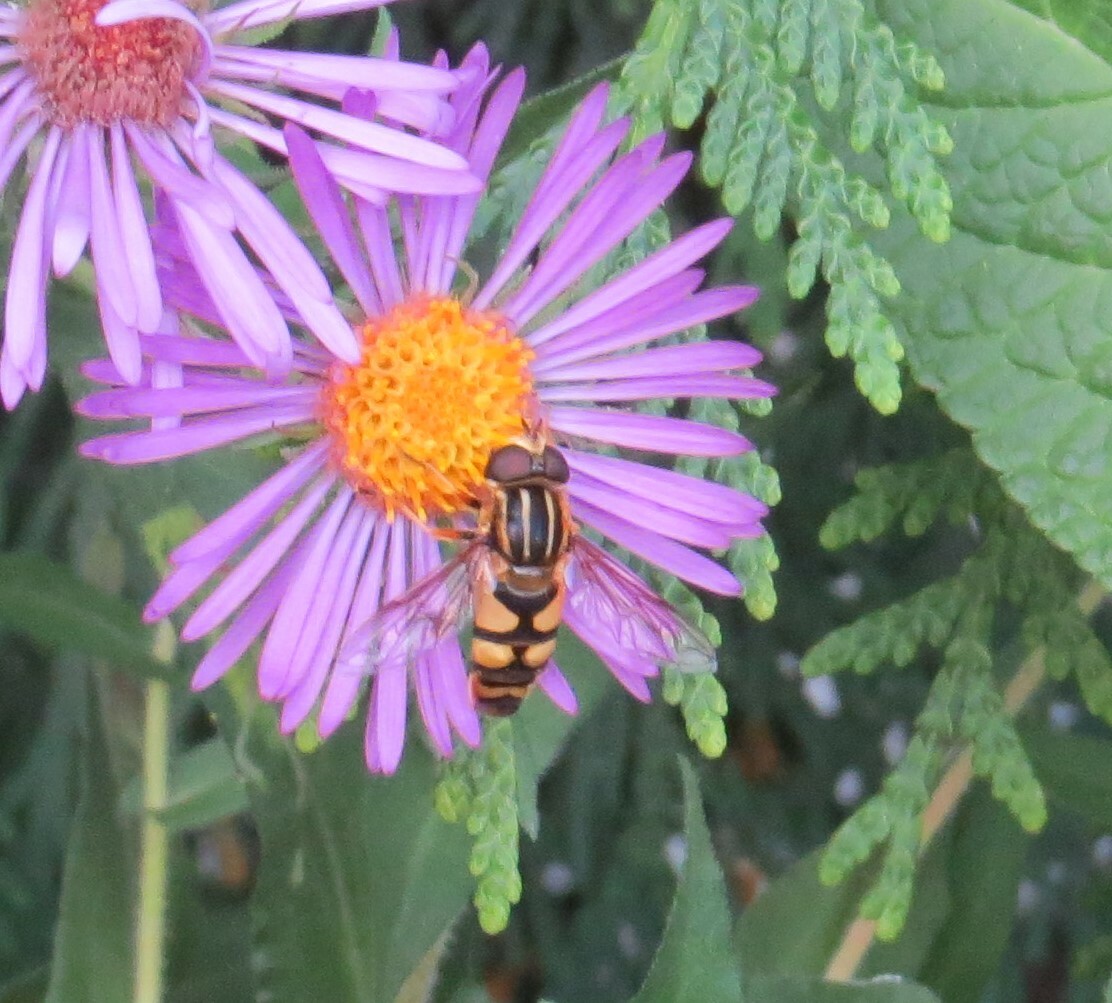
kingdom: Animalia
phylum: Arthropoda
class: Insecta
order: Diptera
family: Syrphidae
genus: Helophilus
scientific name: Helophilus fasciatus
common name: Narrow-headed marsh fly
